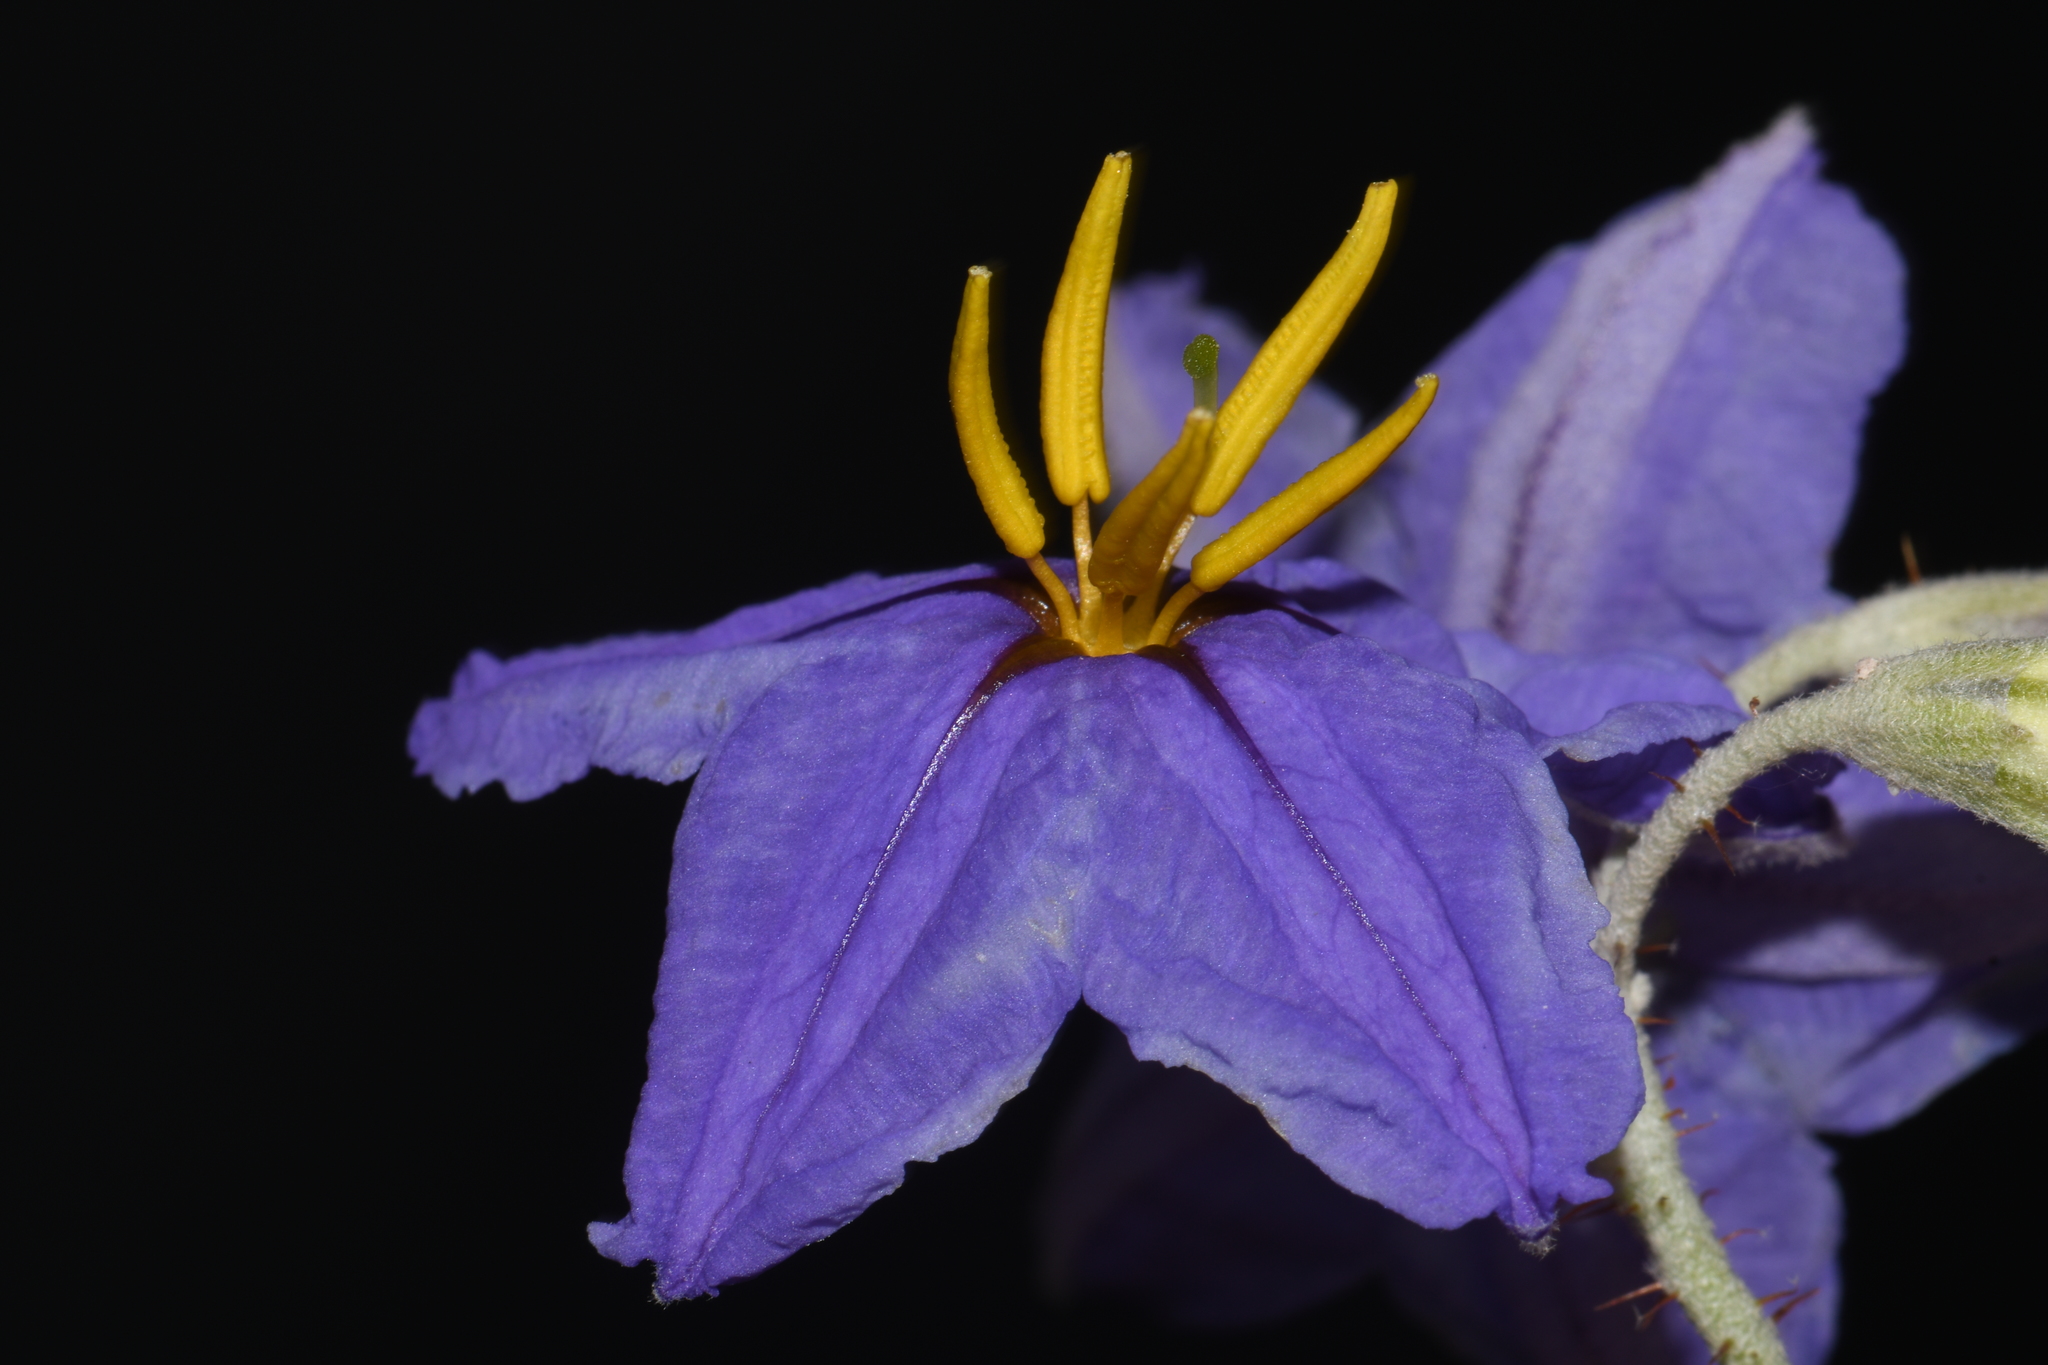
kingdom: Plantae
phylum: Tracheophyta
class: Magnoliopsida
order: Solanales
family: Solanaceae
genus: Solanum
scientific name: Solanum elaeagnifolium
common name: Silverleaf nightshade
